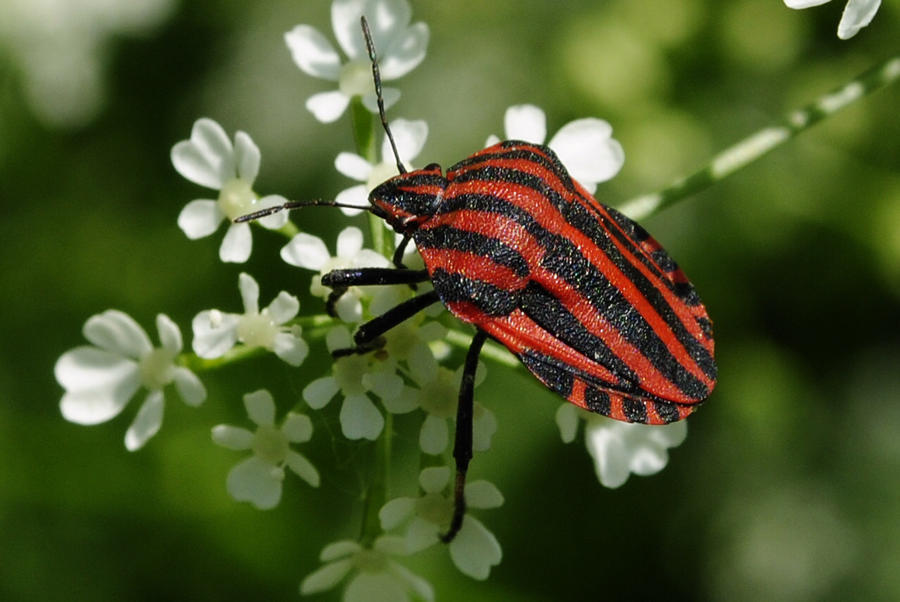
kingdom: Animalia
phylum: Arthropoda
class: Insecta
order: Hemiptera
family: Pentatomidae
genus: Graphosoma
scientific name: Graphosoma italicum
